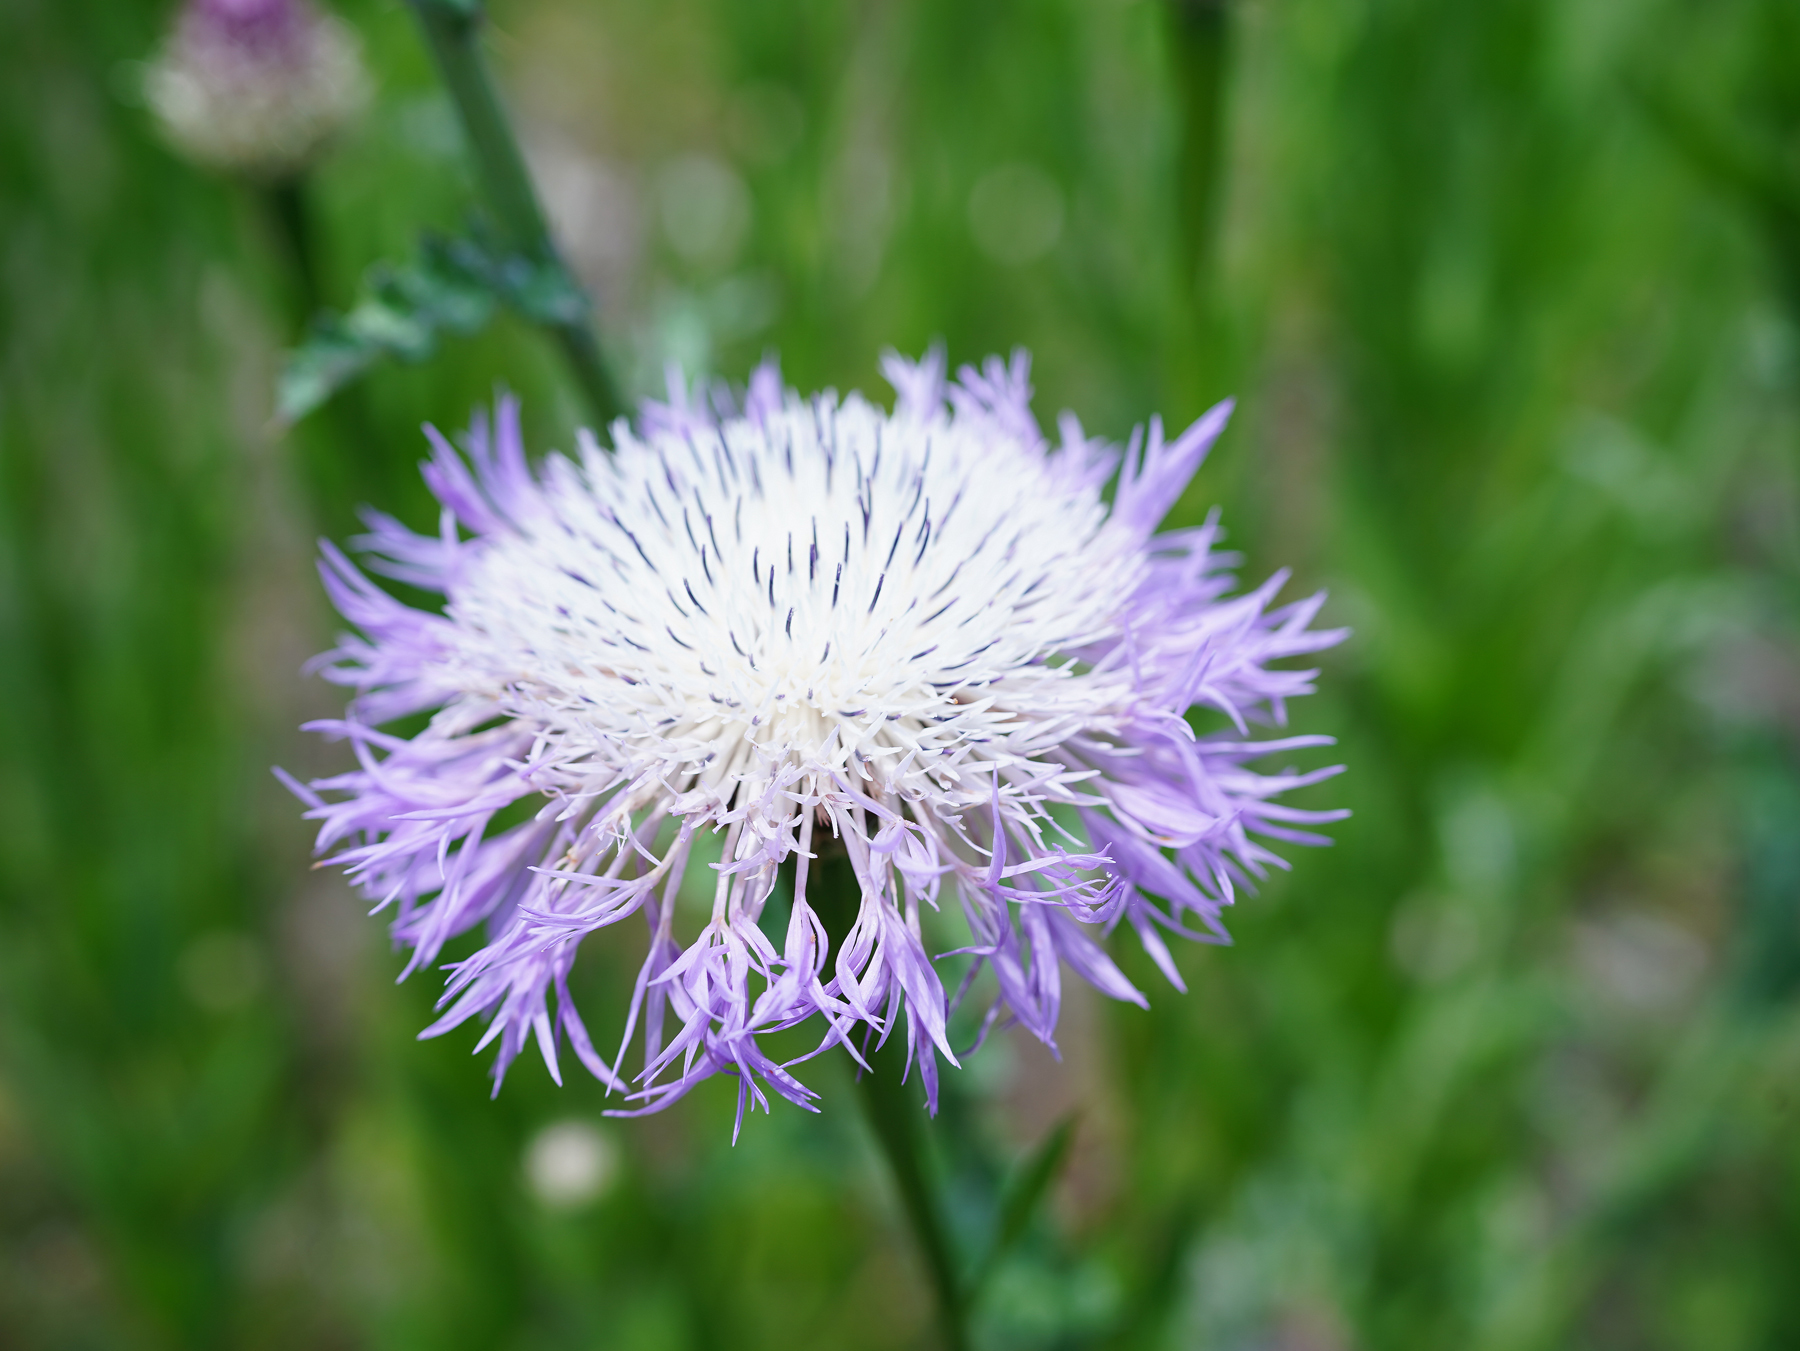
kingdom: Plantae
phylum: Tracheophyta
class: Magnoliopsida
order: Asterales
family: Asteraceae
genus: Plectocephalus
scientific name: Plectocephalus americanus
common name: American basket-flower
